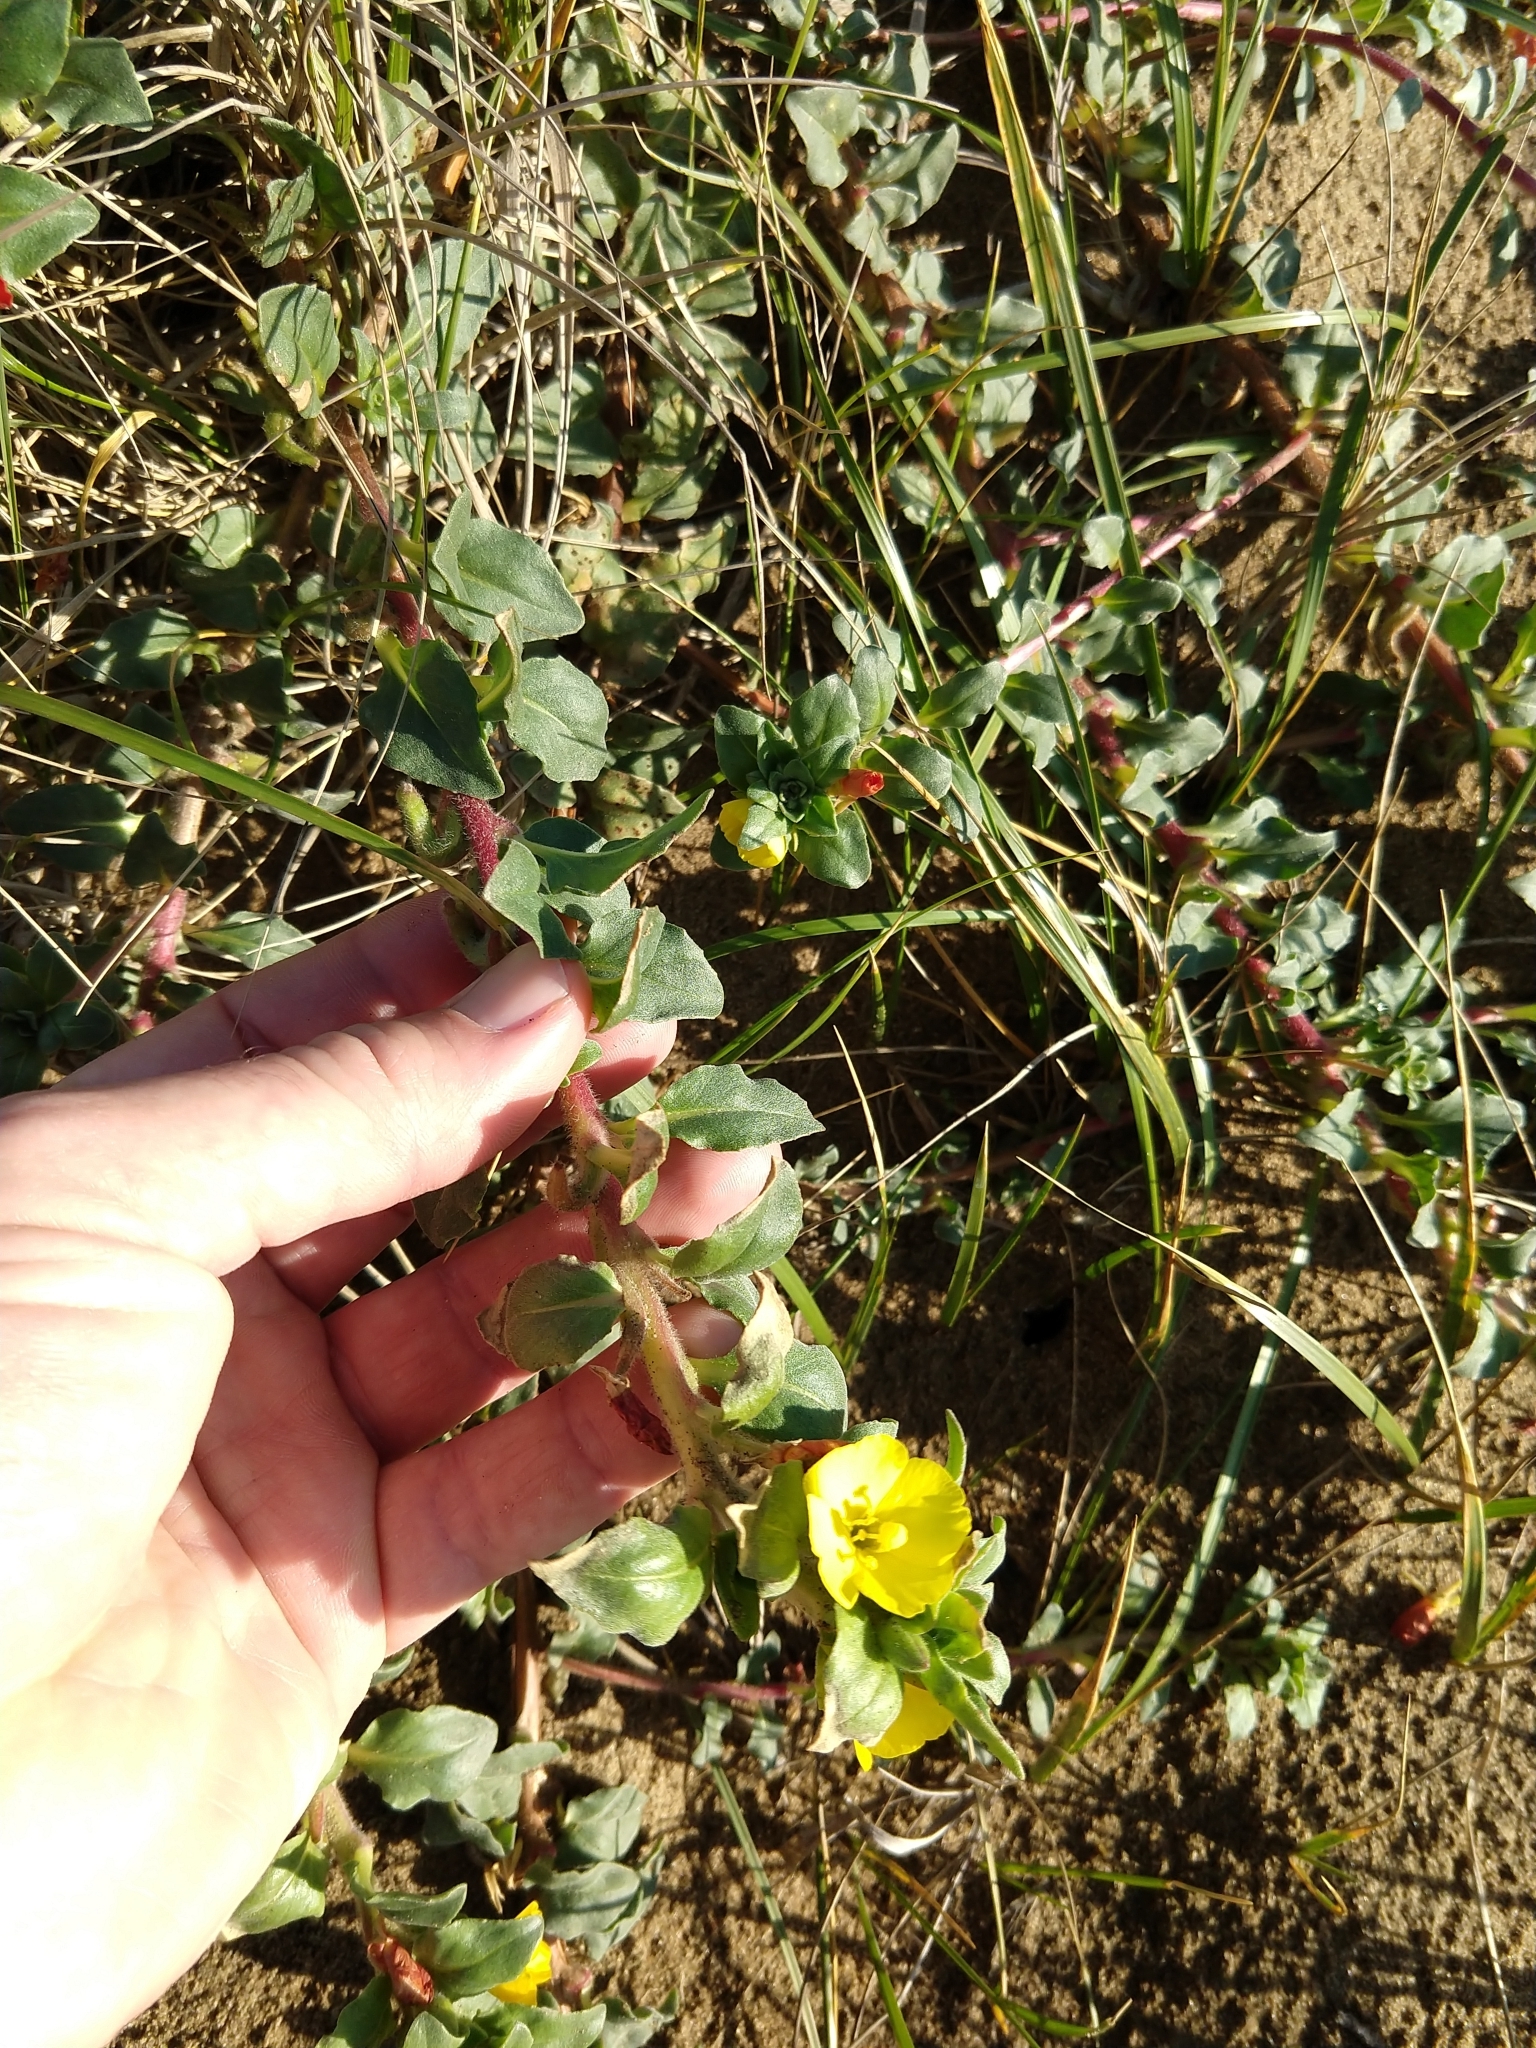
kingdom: Plantae
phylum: Tracheophyta
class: Magnoliopsida
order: Myrtales
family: Onagraceae
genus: Camissoniopsis
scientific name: Camissoniopsis cheiranthifolia
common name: Beach suncup
